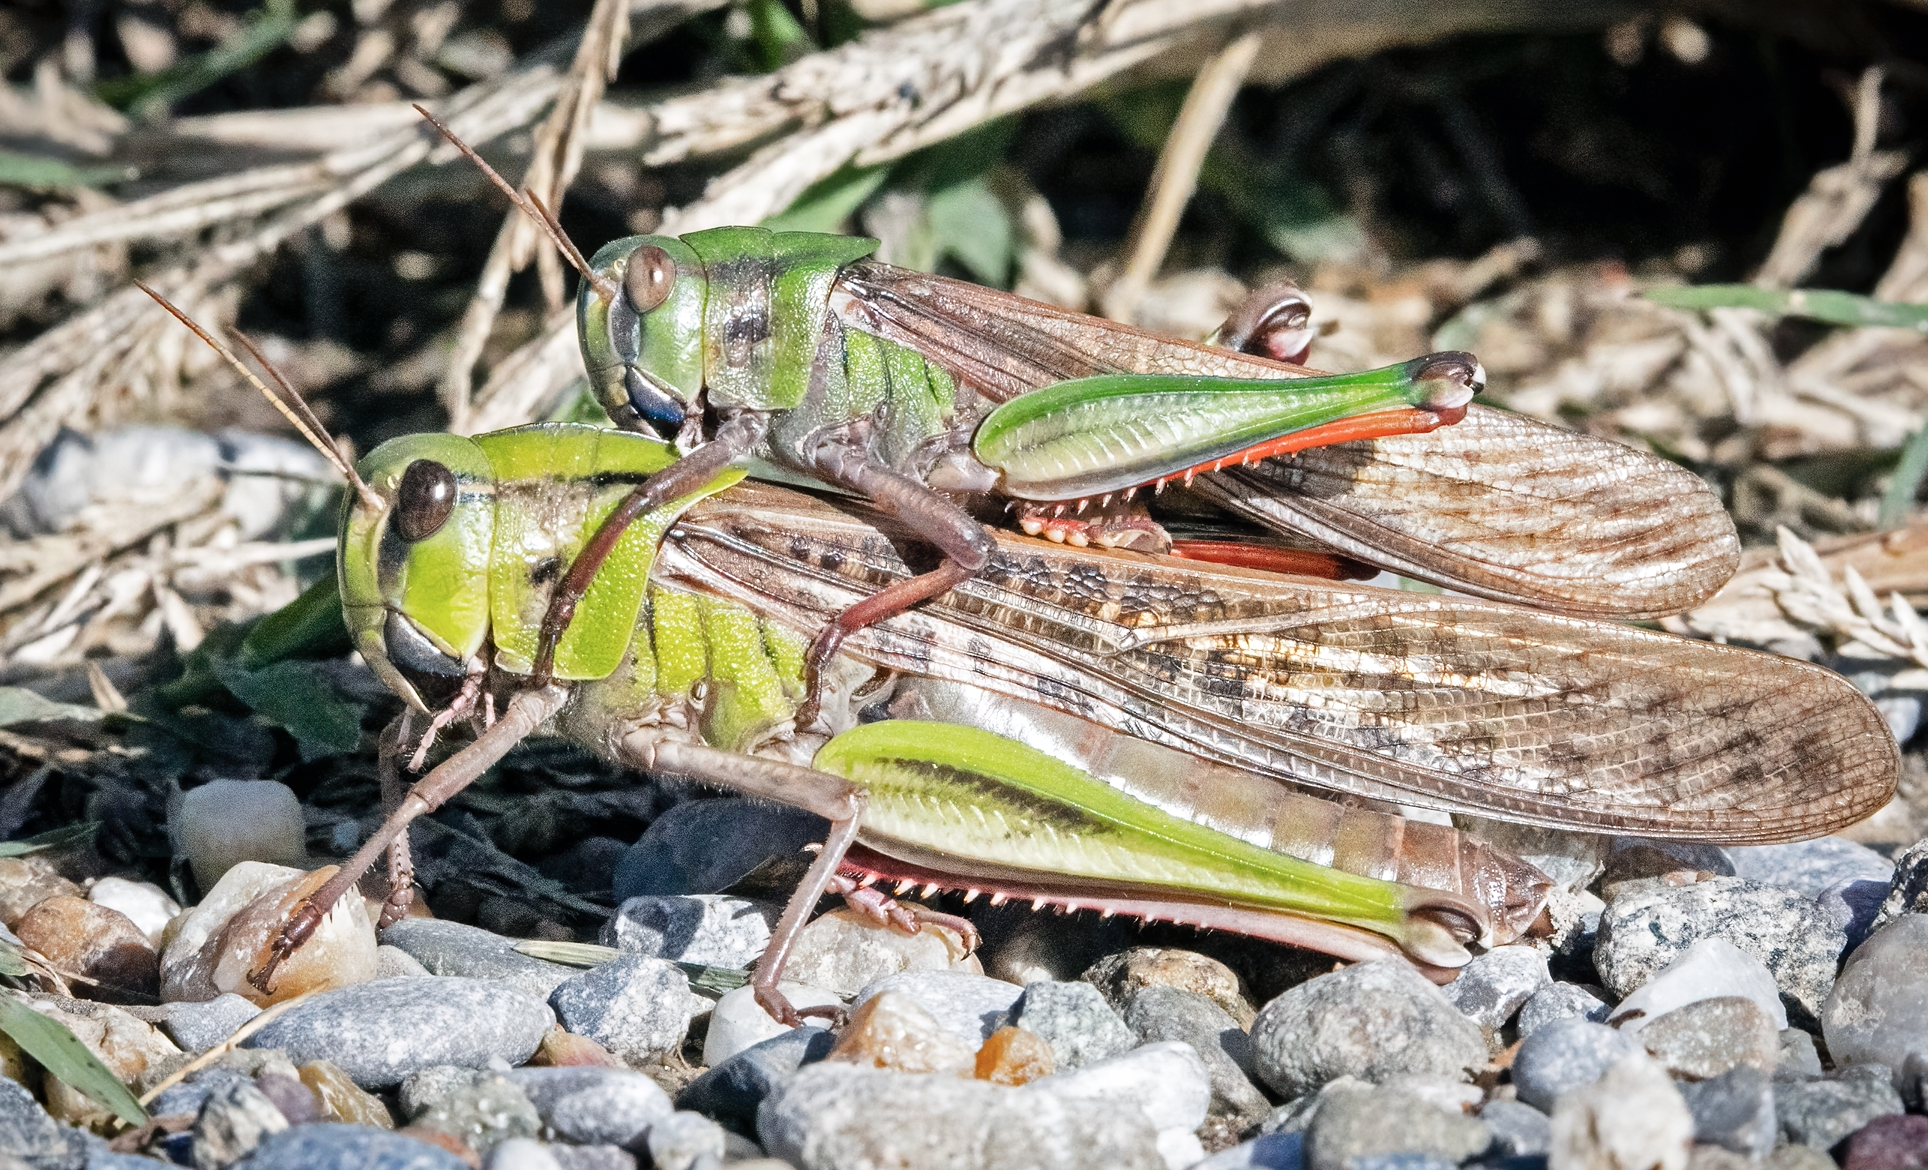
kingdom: Animalia
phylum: Arthropoda
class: Insecta
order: Orthoptera
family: Acrididae
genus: Locusta
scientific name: Locusta migratoria
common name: Migratory locust
